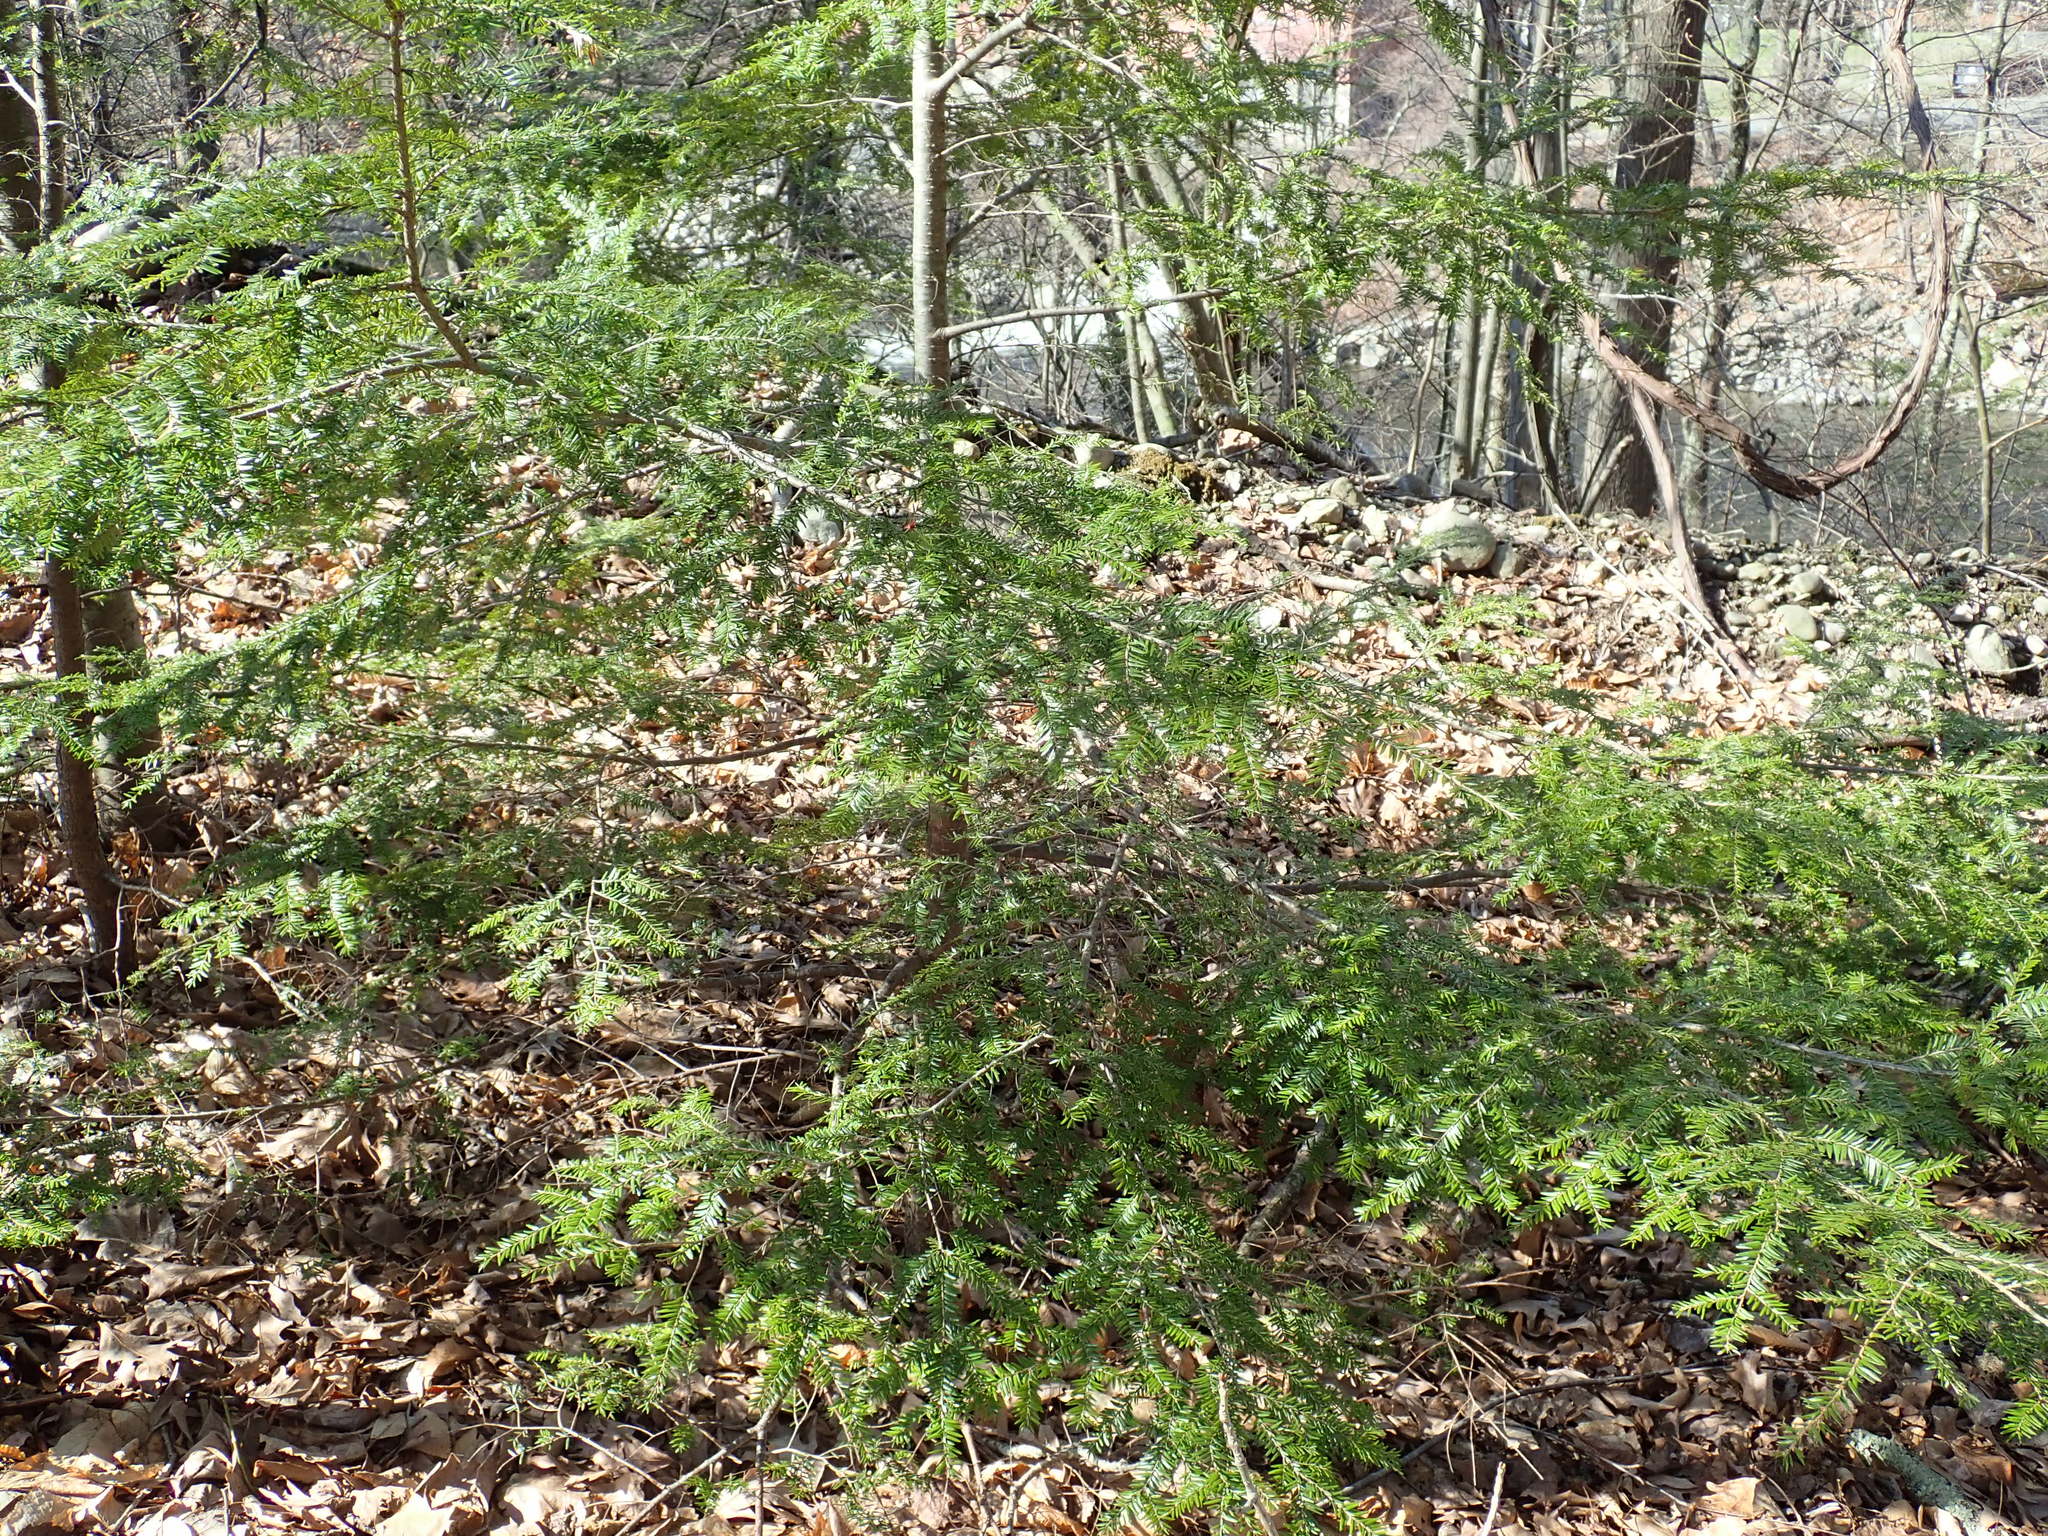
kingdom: Plantae
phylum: Tracheophyta
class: Pinopsida
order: Pinales
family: Pinaceae
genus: Tsuga
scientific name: Tsuga canadensis
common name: Eastern hemlock
